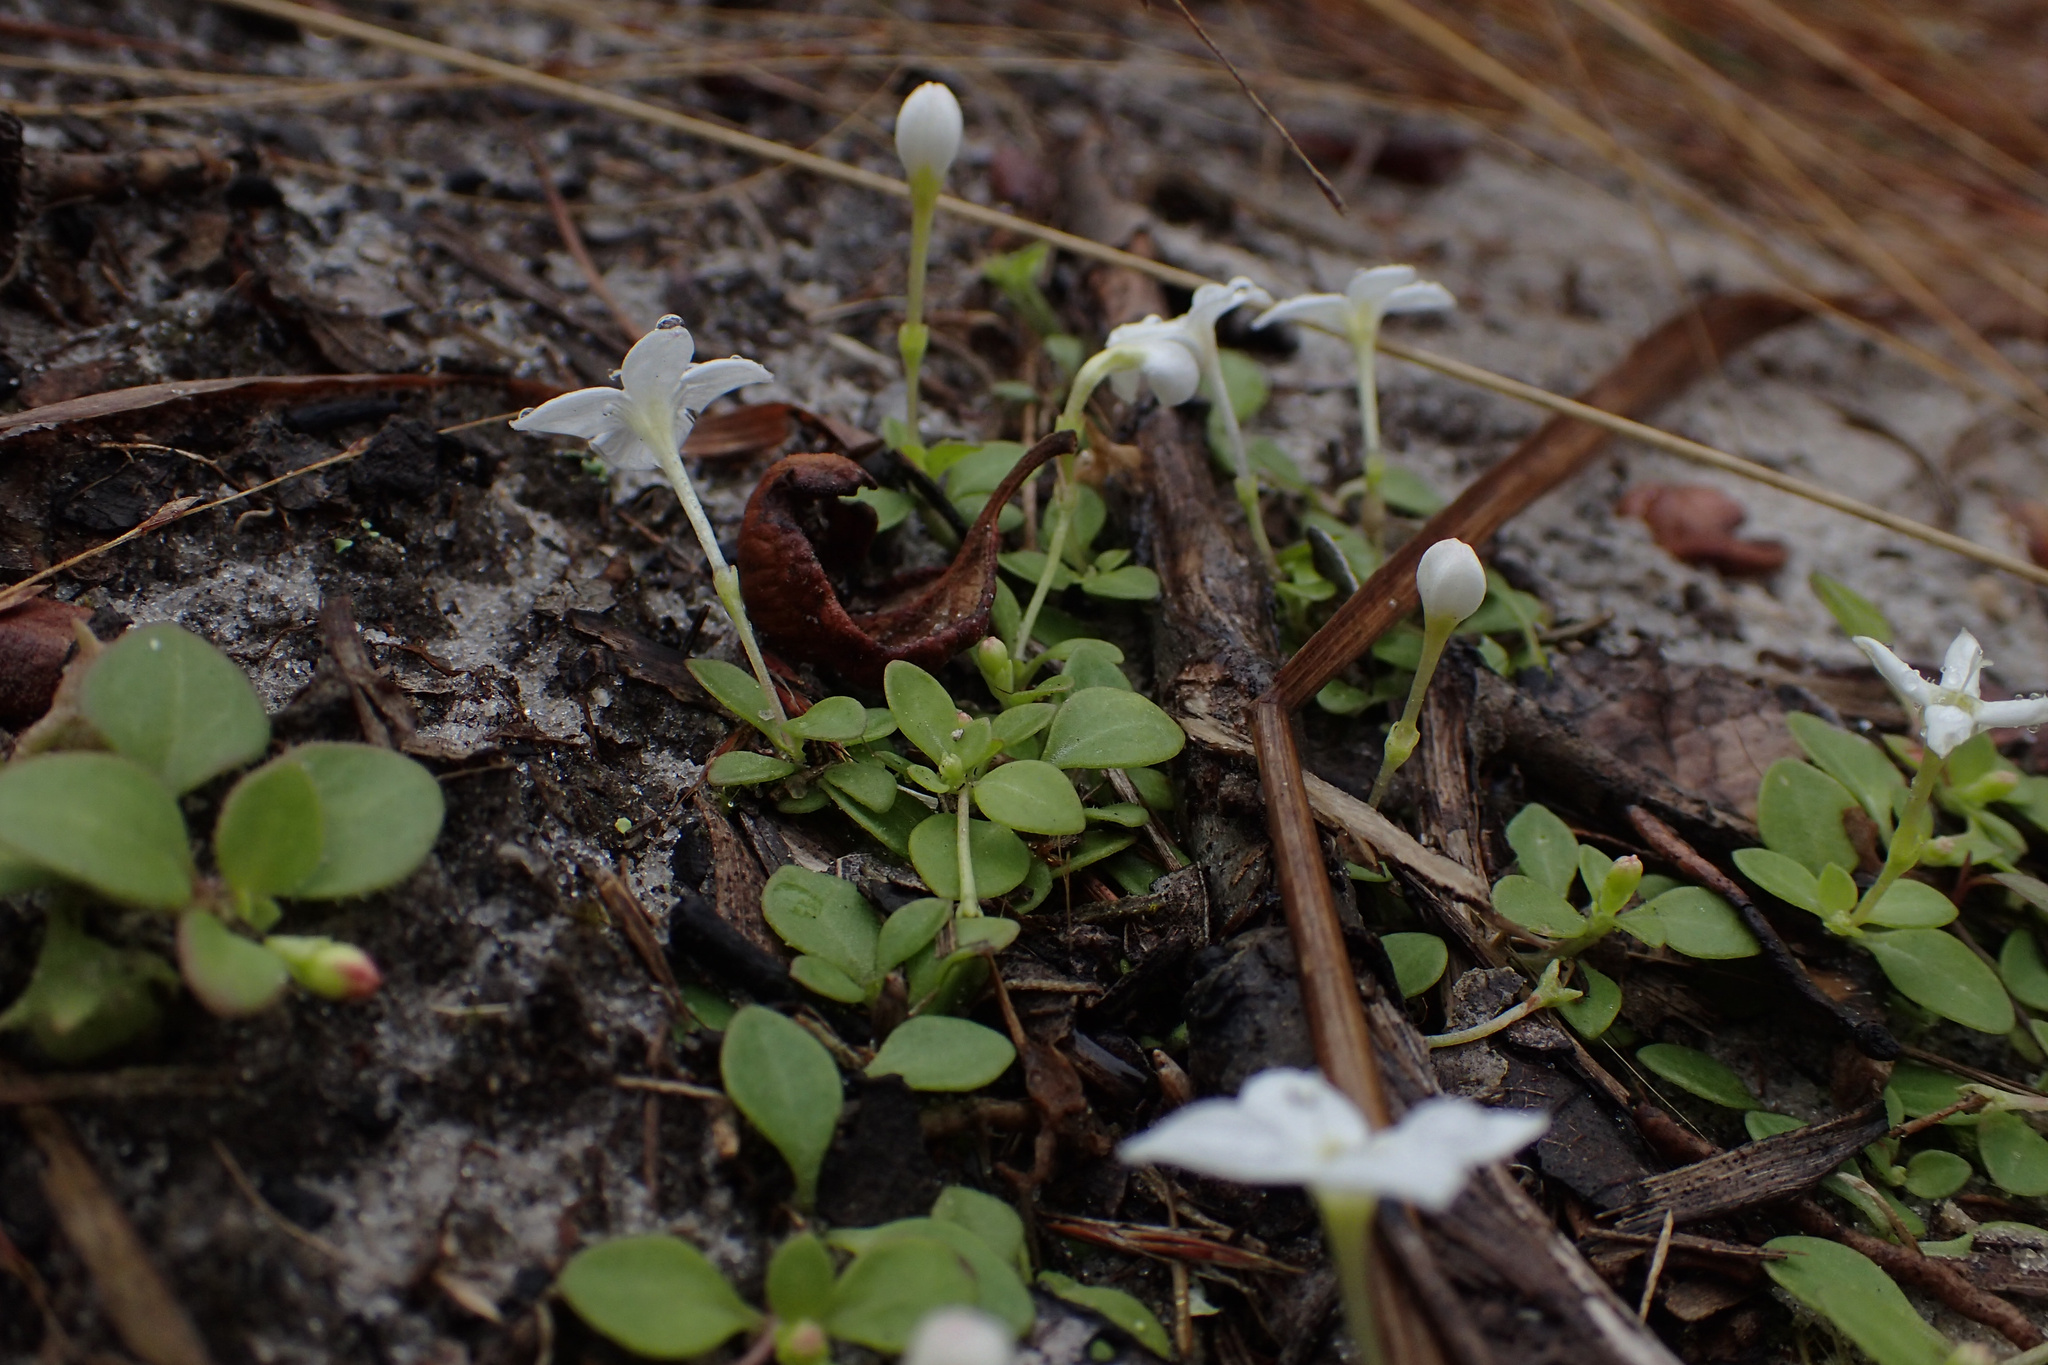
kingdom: Plantae
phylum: Tracheophyta
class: Magnoliopsida
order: Gentianales
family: Rubiaceae
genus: Houstonia
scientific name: Houstonia procumbens
